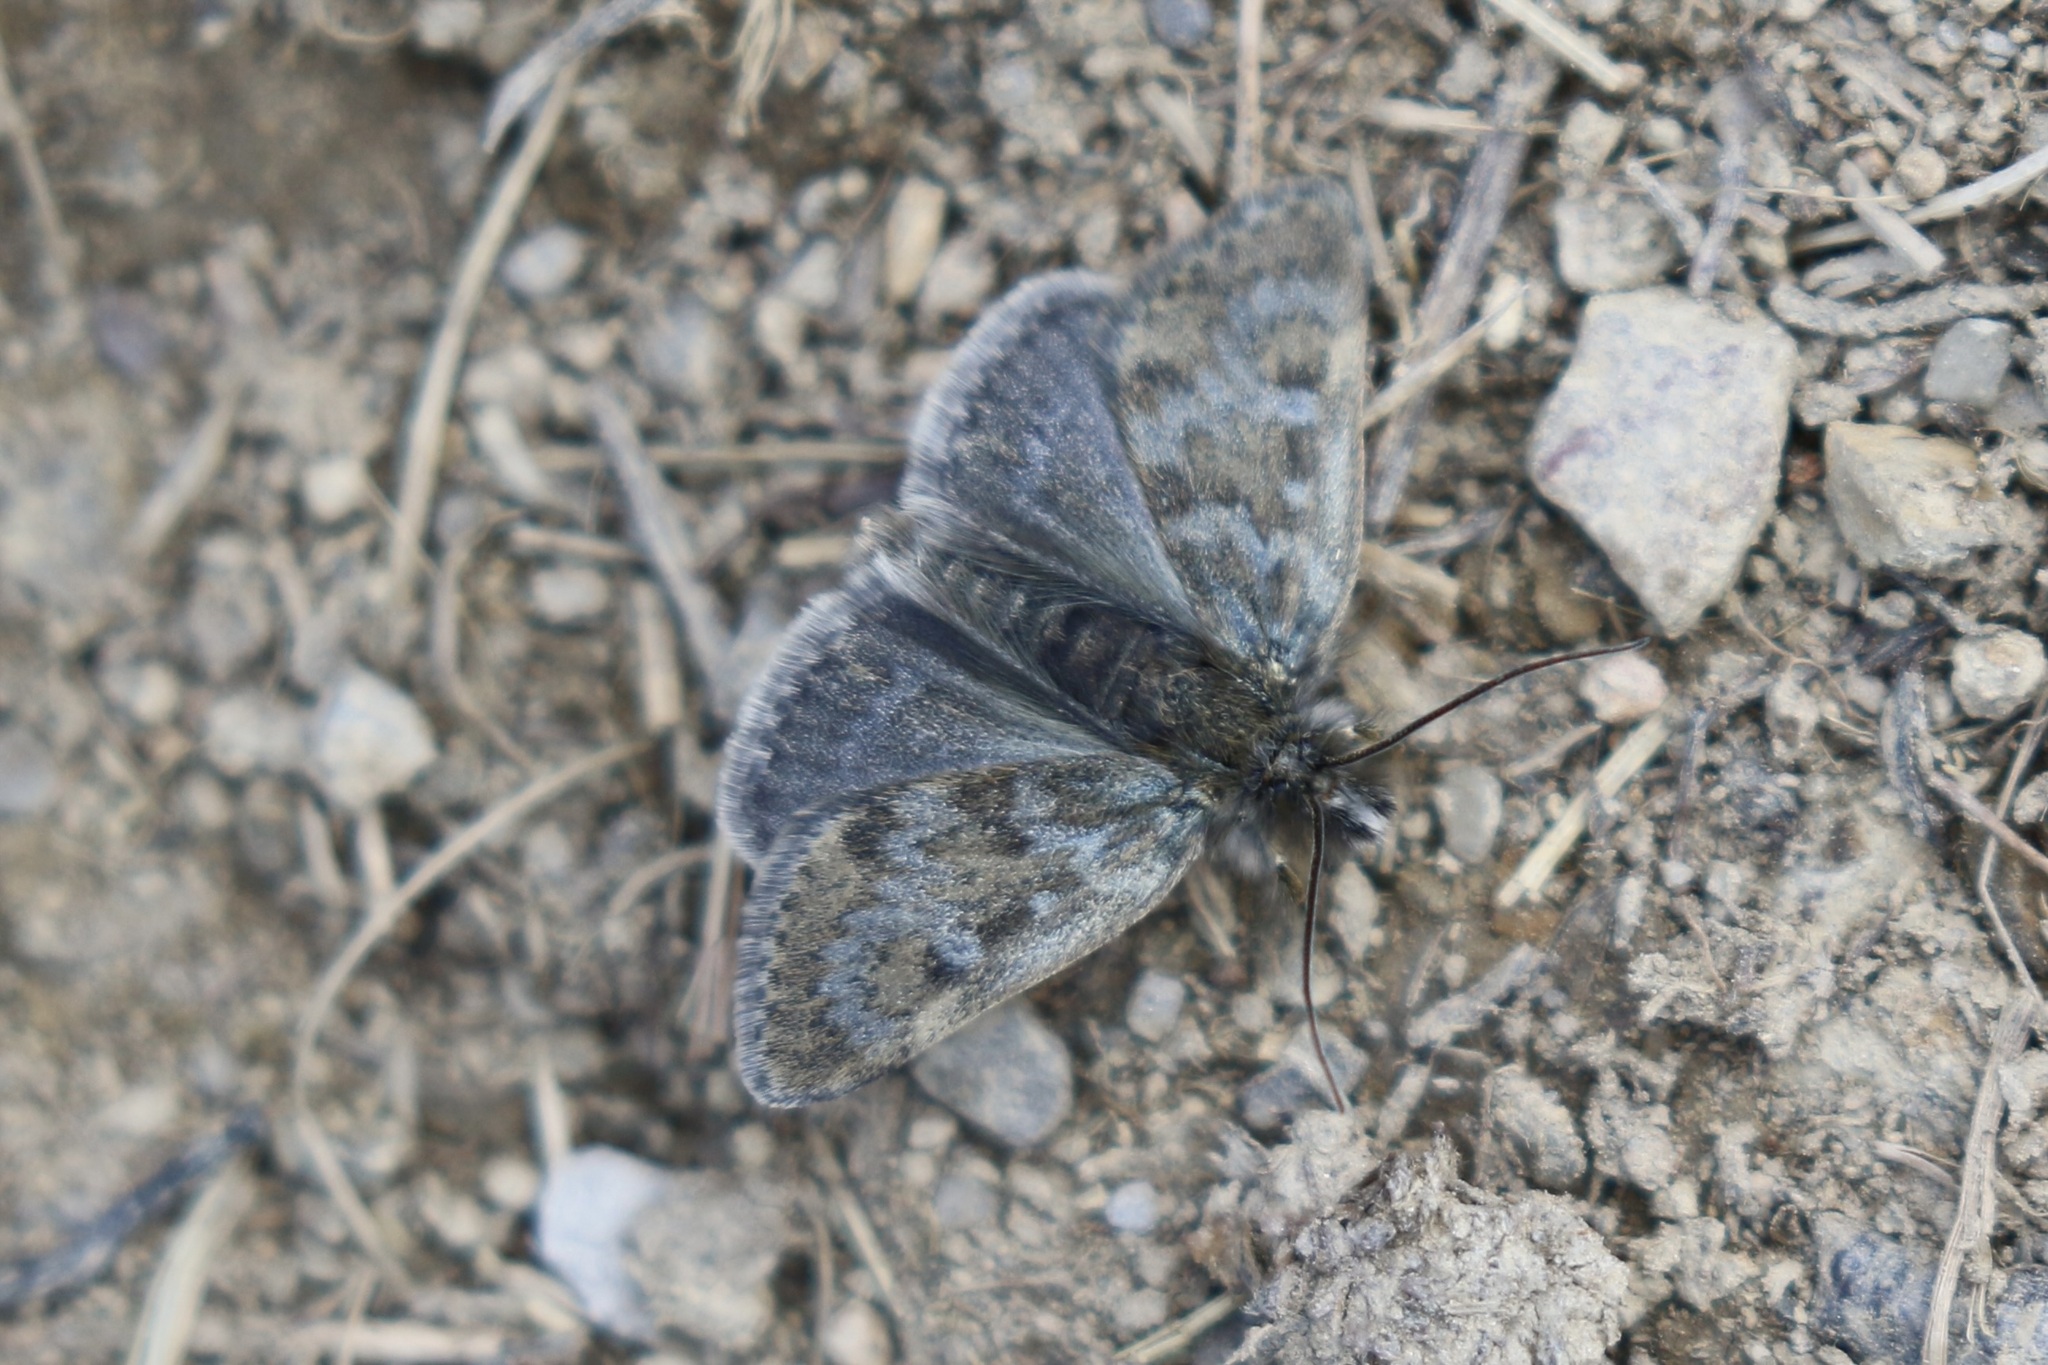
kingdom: Animalia
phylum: Arthropoda
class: Insecta
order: Lepidoptera
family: Crambidae
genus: Metaxmeste
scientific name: Metaxmeste phrygialis
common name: Black mountain pearl
